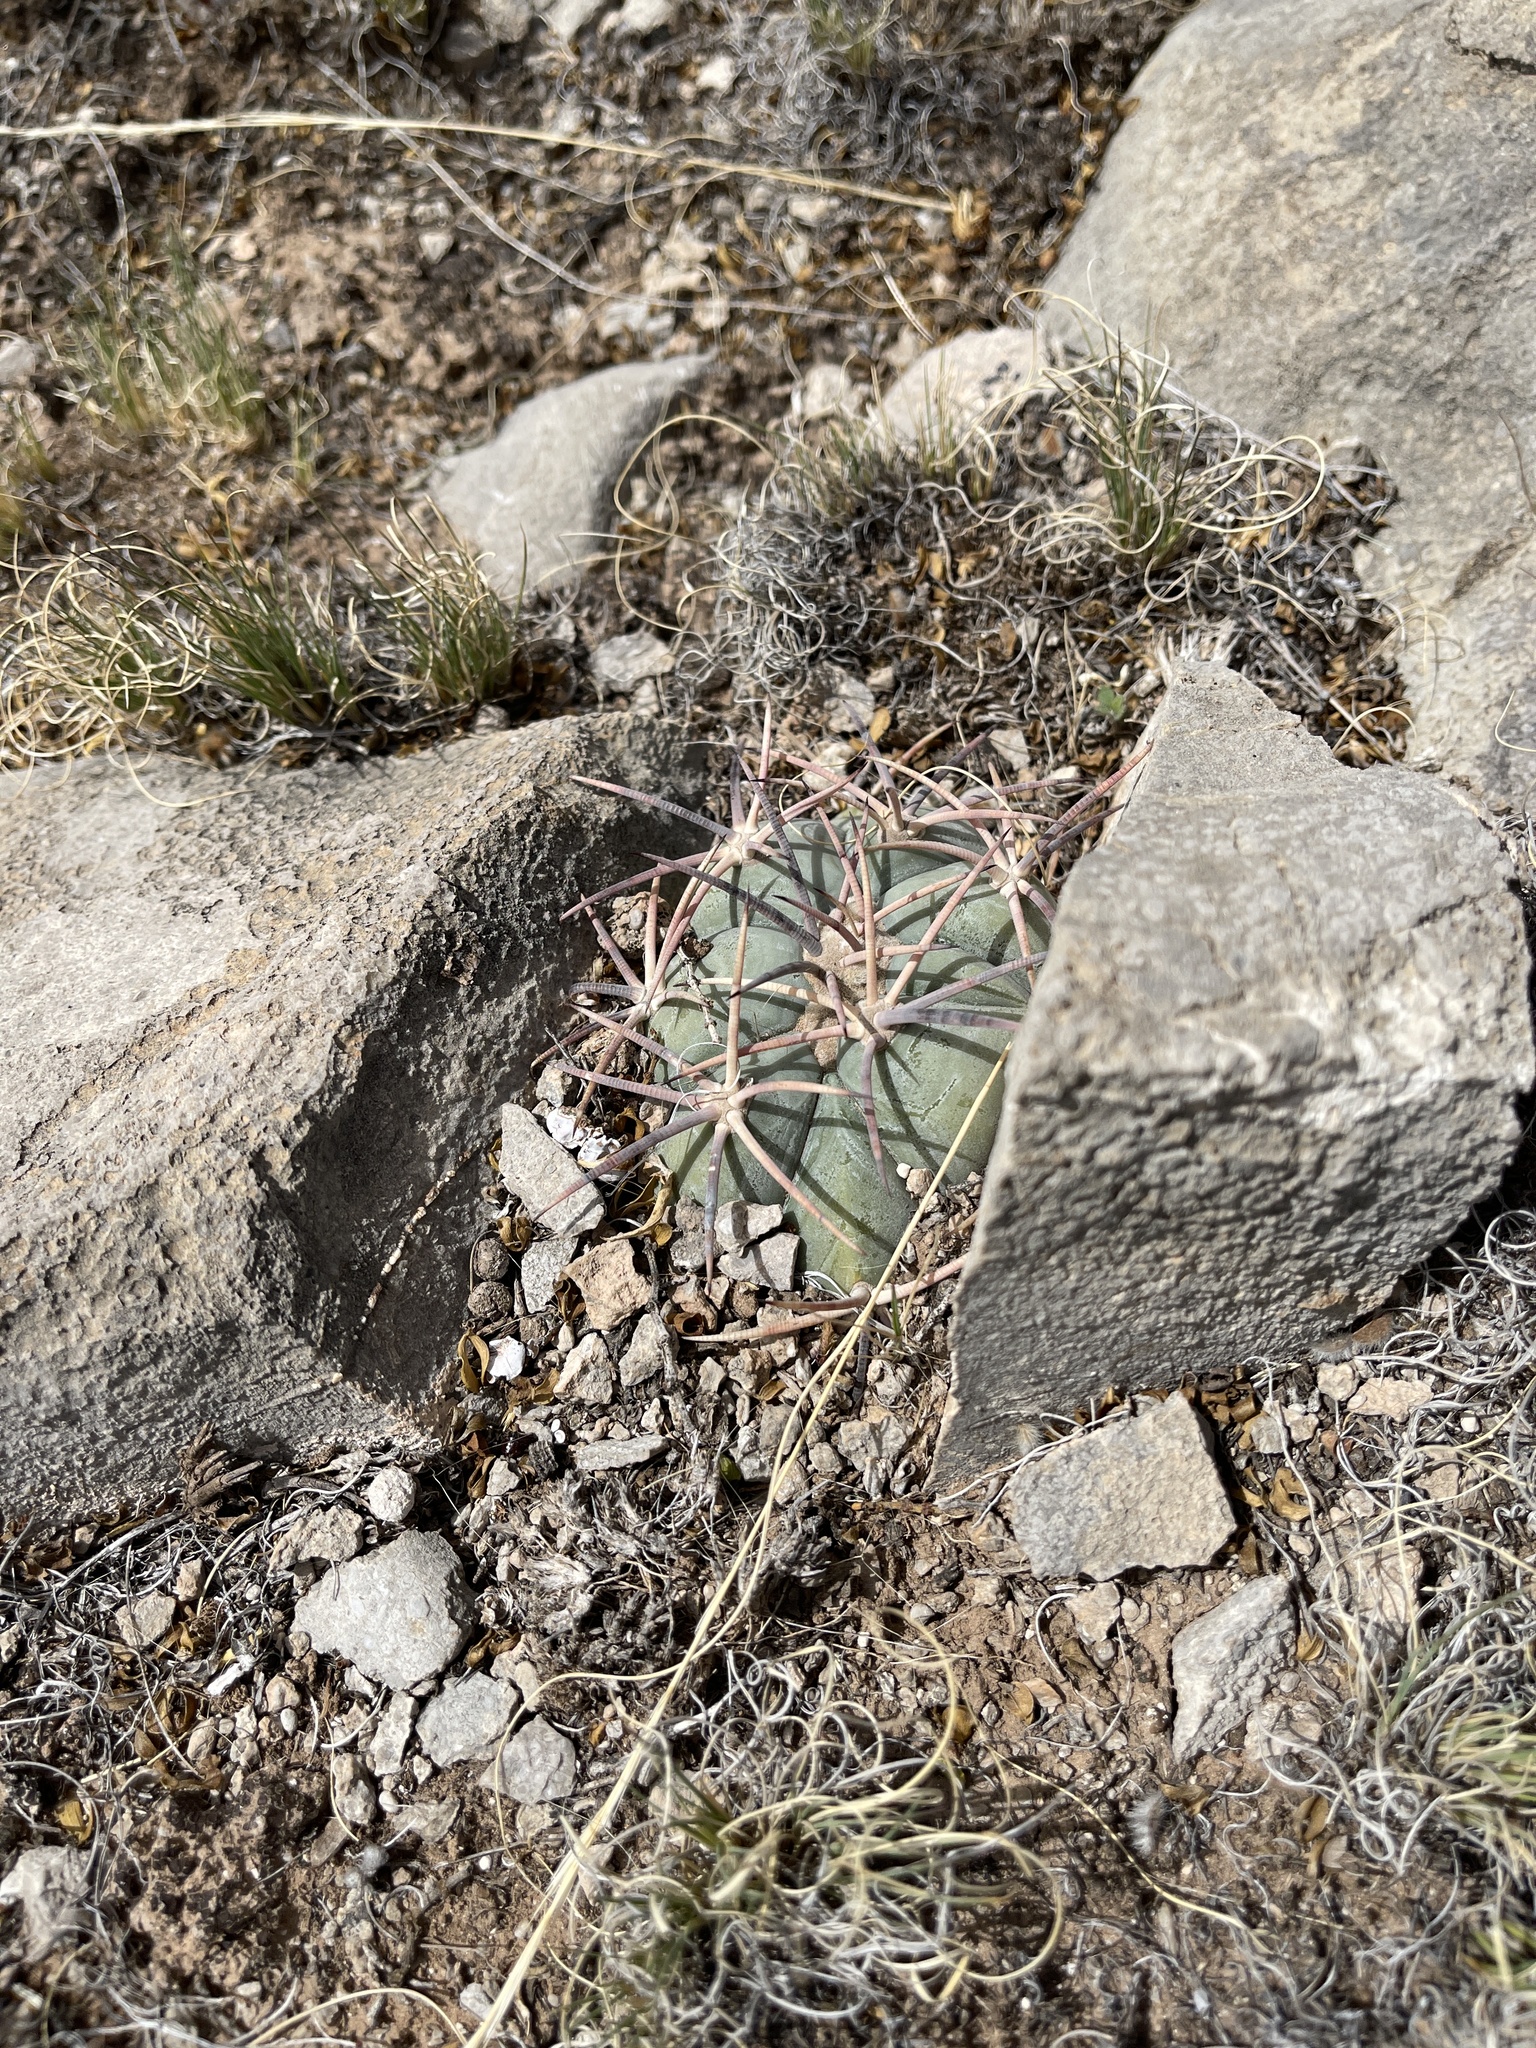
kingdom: Plantae
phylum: Tracheophyta
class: Magnoliopsida
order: Caryophyllales
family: Cactaceae
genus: Echinocactus
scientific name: Echinocactus horizonthalonius
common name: Devilshead
